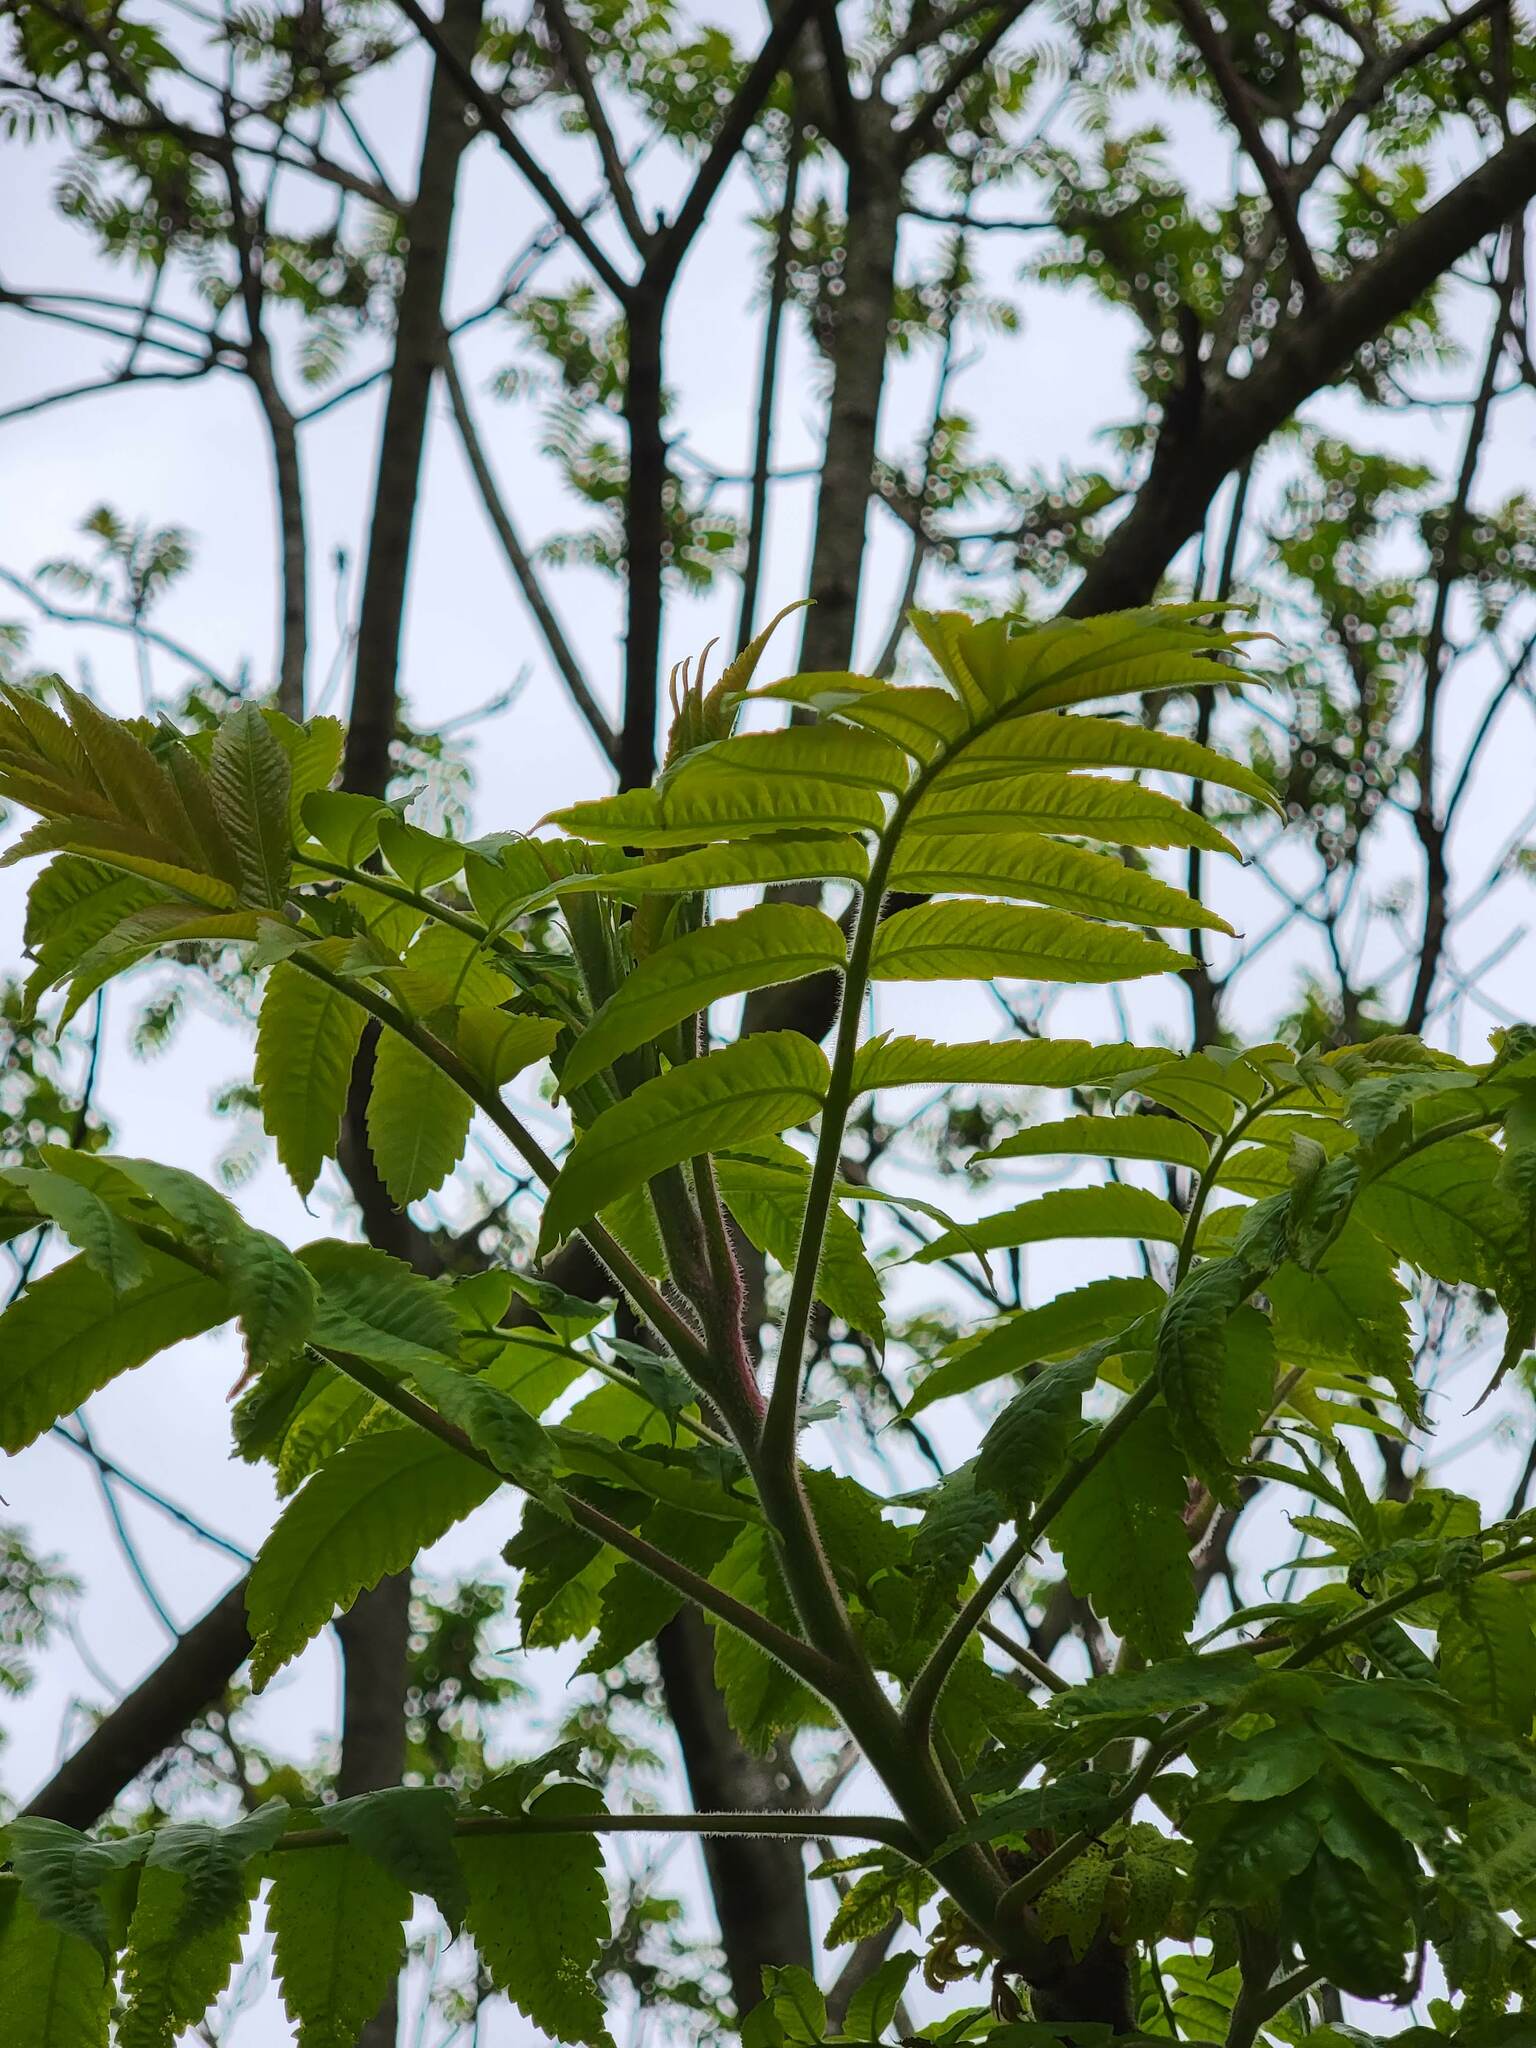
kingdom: Plantae
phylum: Tracheophyta
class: Magnoliopsida
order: Sapindales
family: Anacardiaceae
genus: Rhus
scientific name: Rhus typhina
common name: Staghorn sumac
